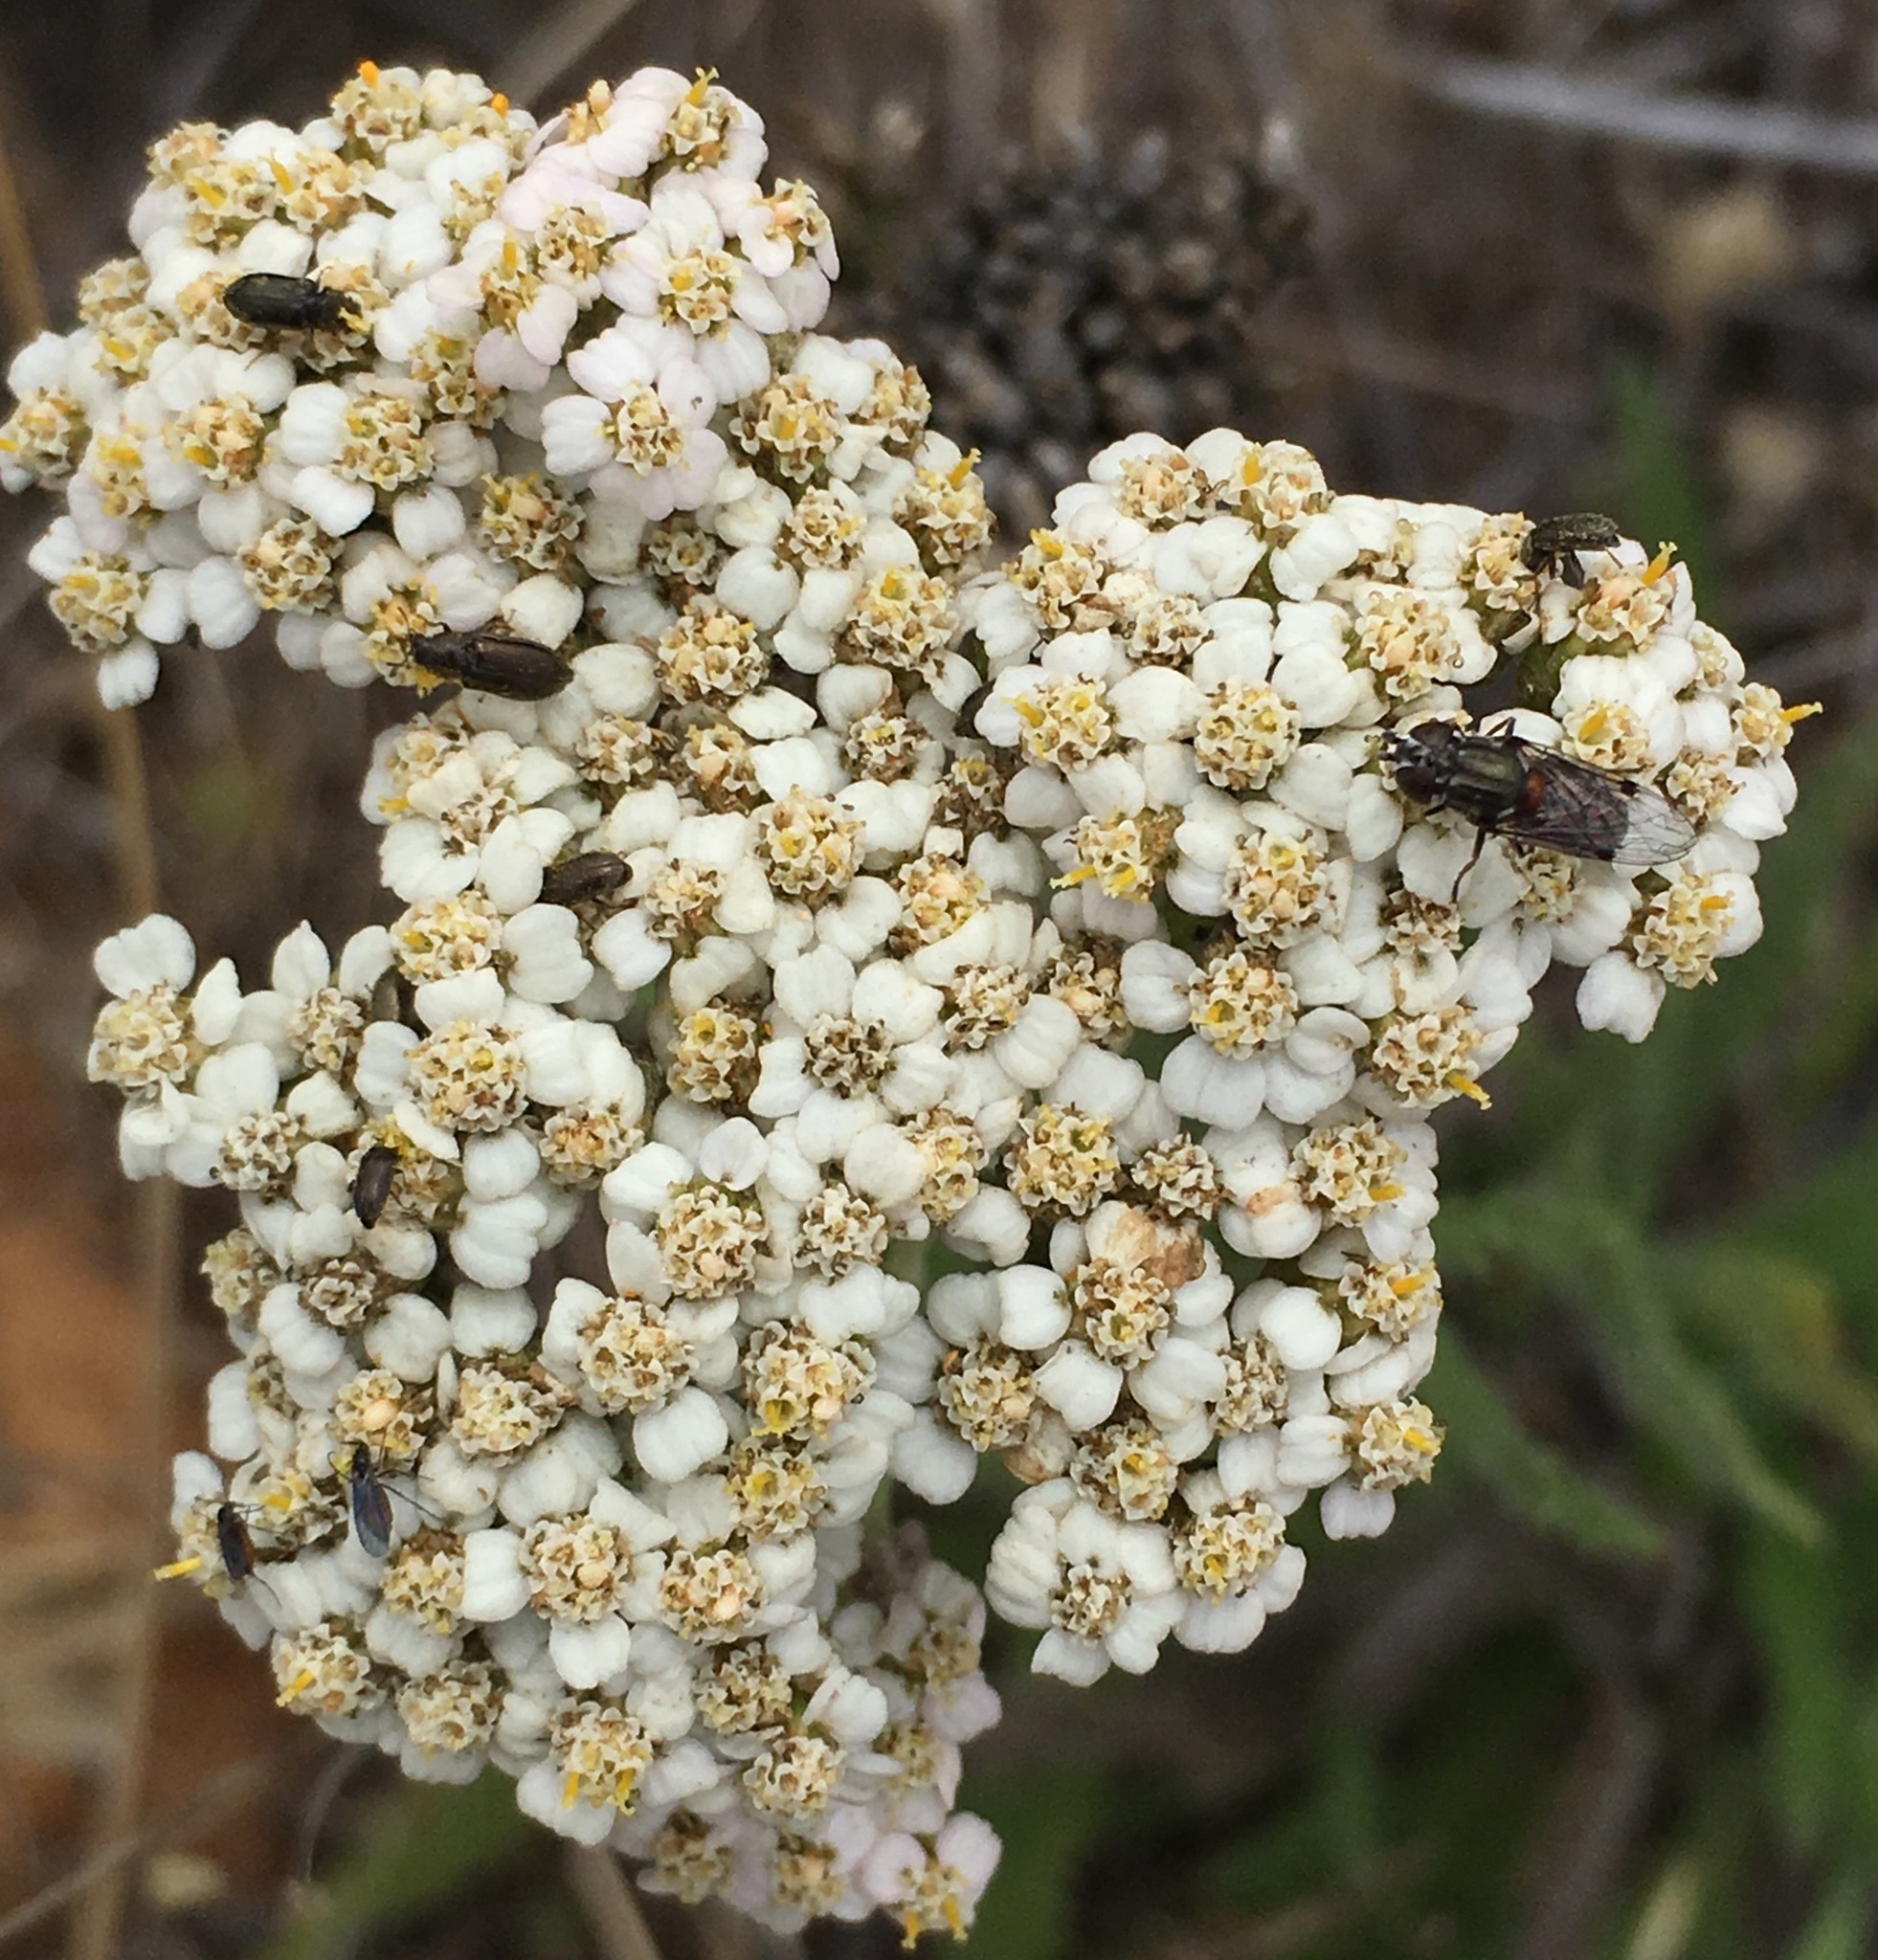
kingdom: Plantae
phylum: Tracheophyta
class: Magnoliopsida
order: Asterales
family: Asteraceae
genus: Achillea
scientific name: Achillea millefolium
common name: Yarrow
